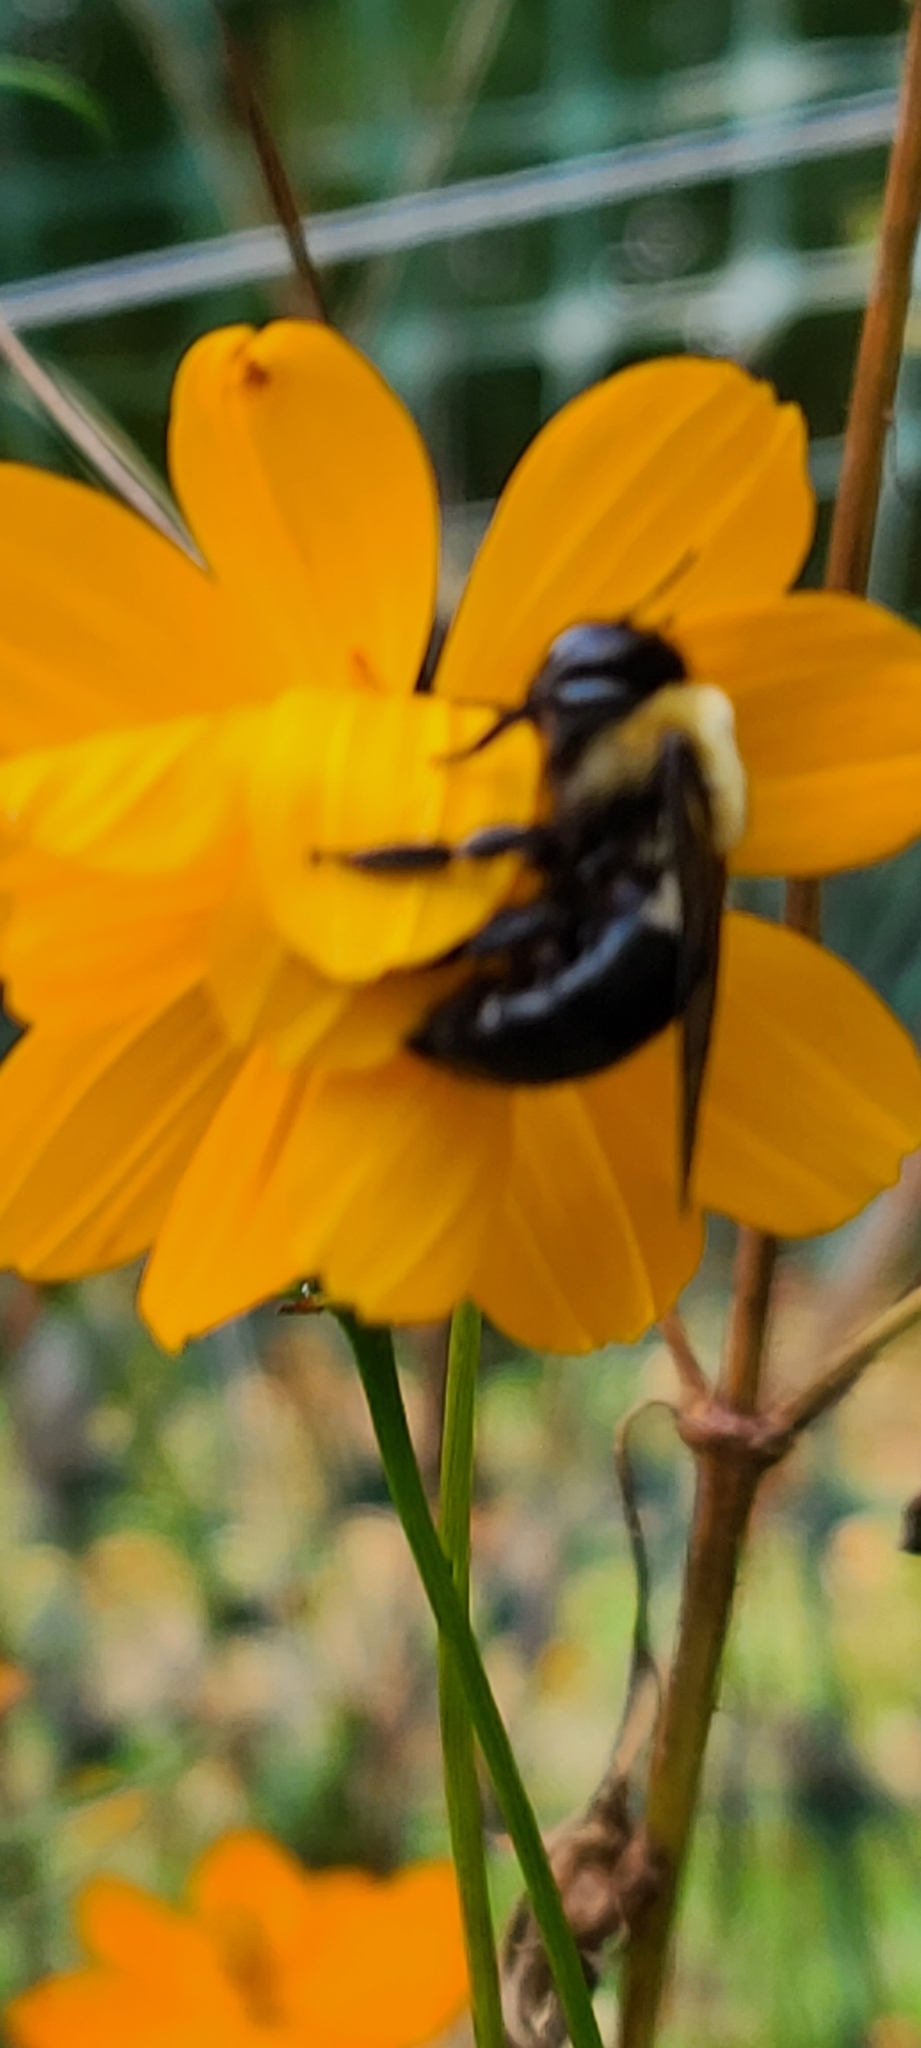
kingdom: Animalia
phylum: Arthropoda
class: Insecta
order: Hymenoptera
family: Apidae
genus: Xylocopa
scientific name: Xylocopa virginica
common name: Carpenter bee
